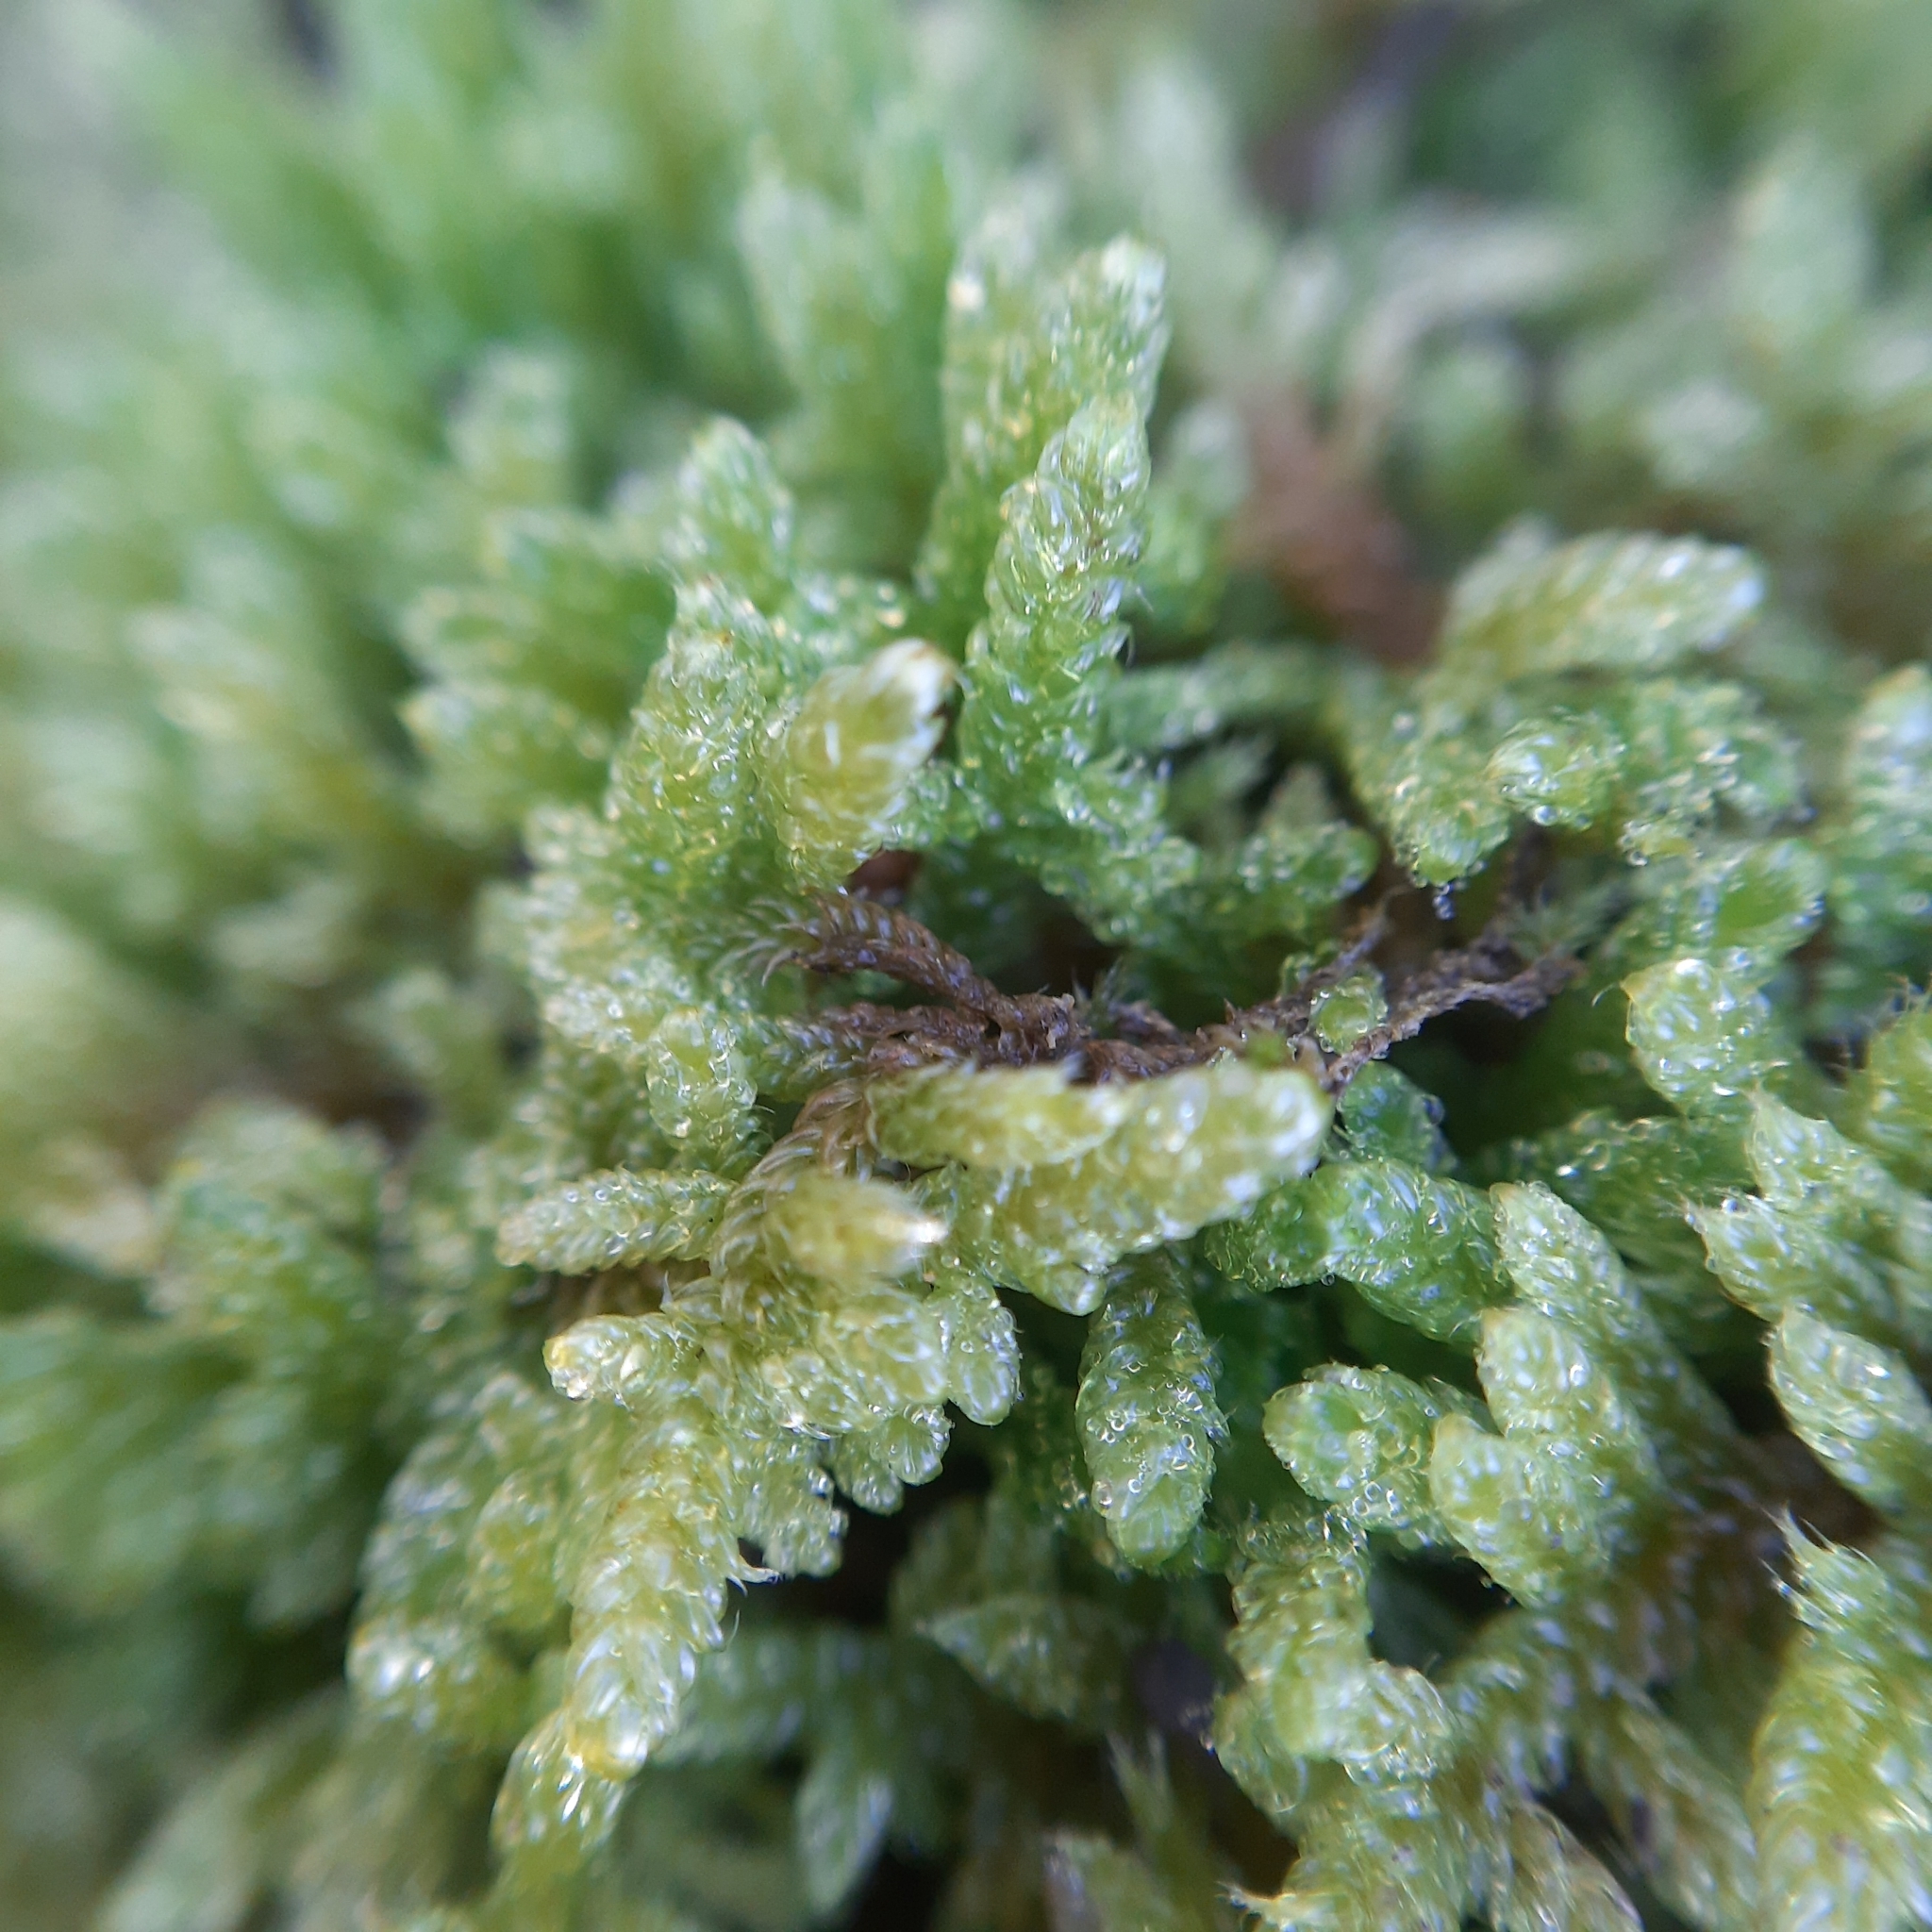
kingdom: Plantae
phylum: Bryophyta
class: Bryopsida
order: Hypnales
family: Hypnaceae
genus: Hypnum
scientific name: Hypnum cupressiforme
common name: Cypress-leaved plait-moss
